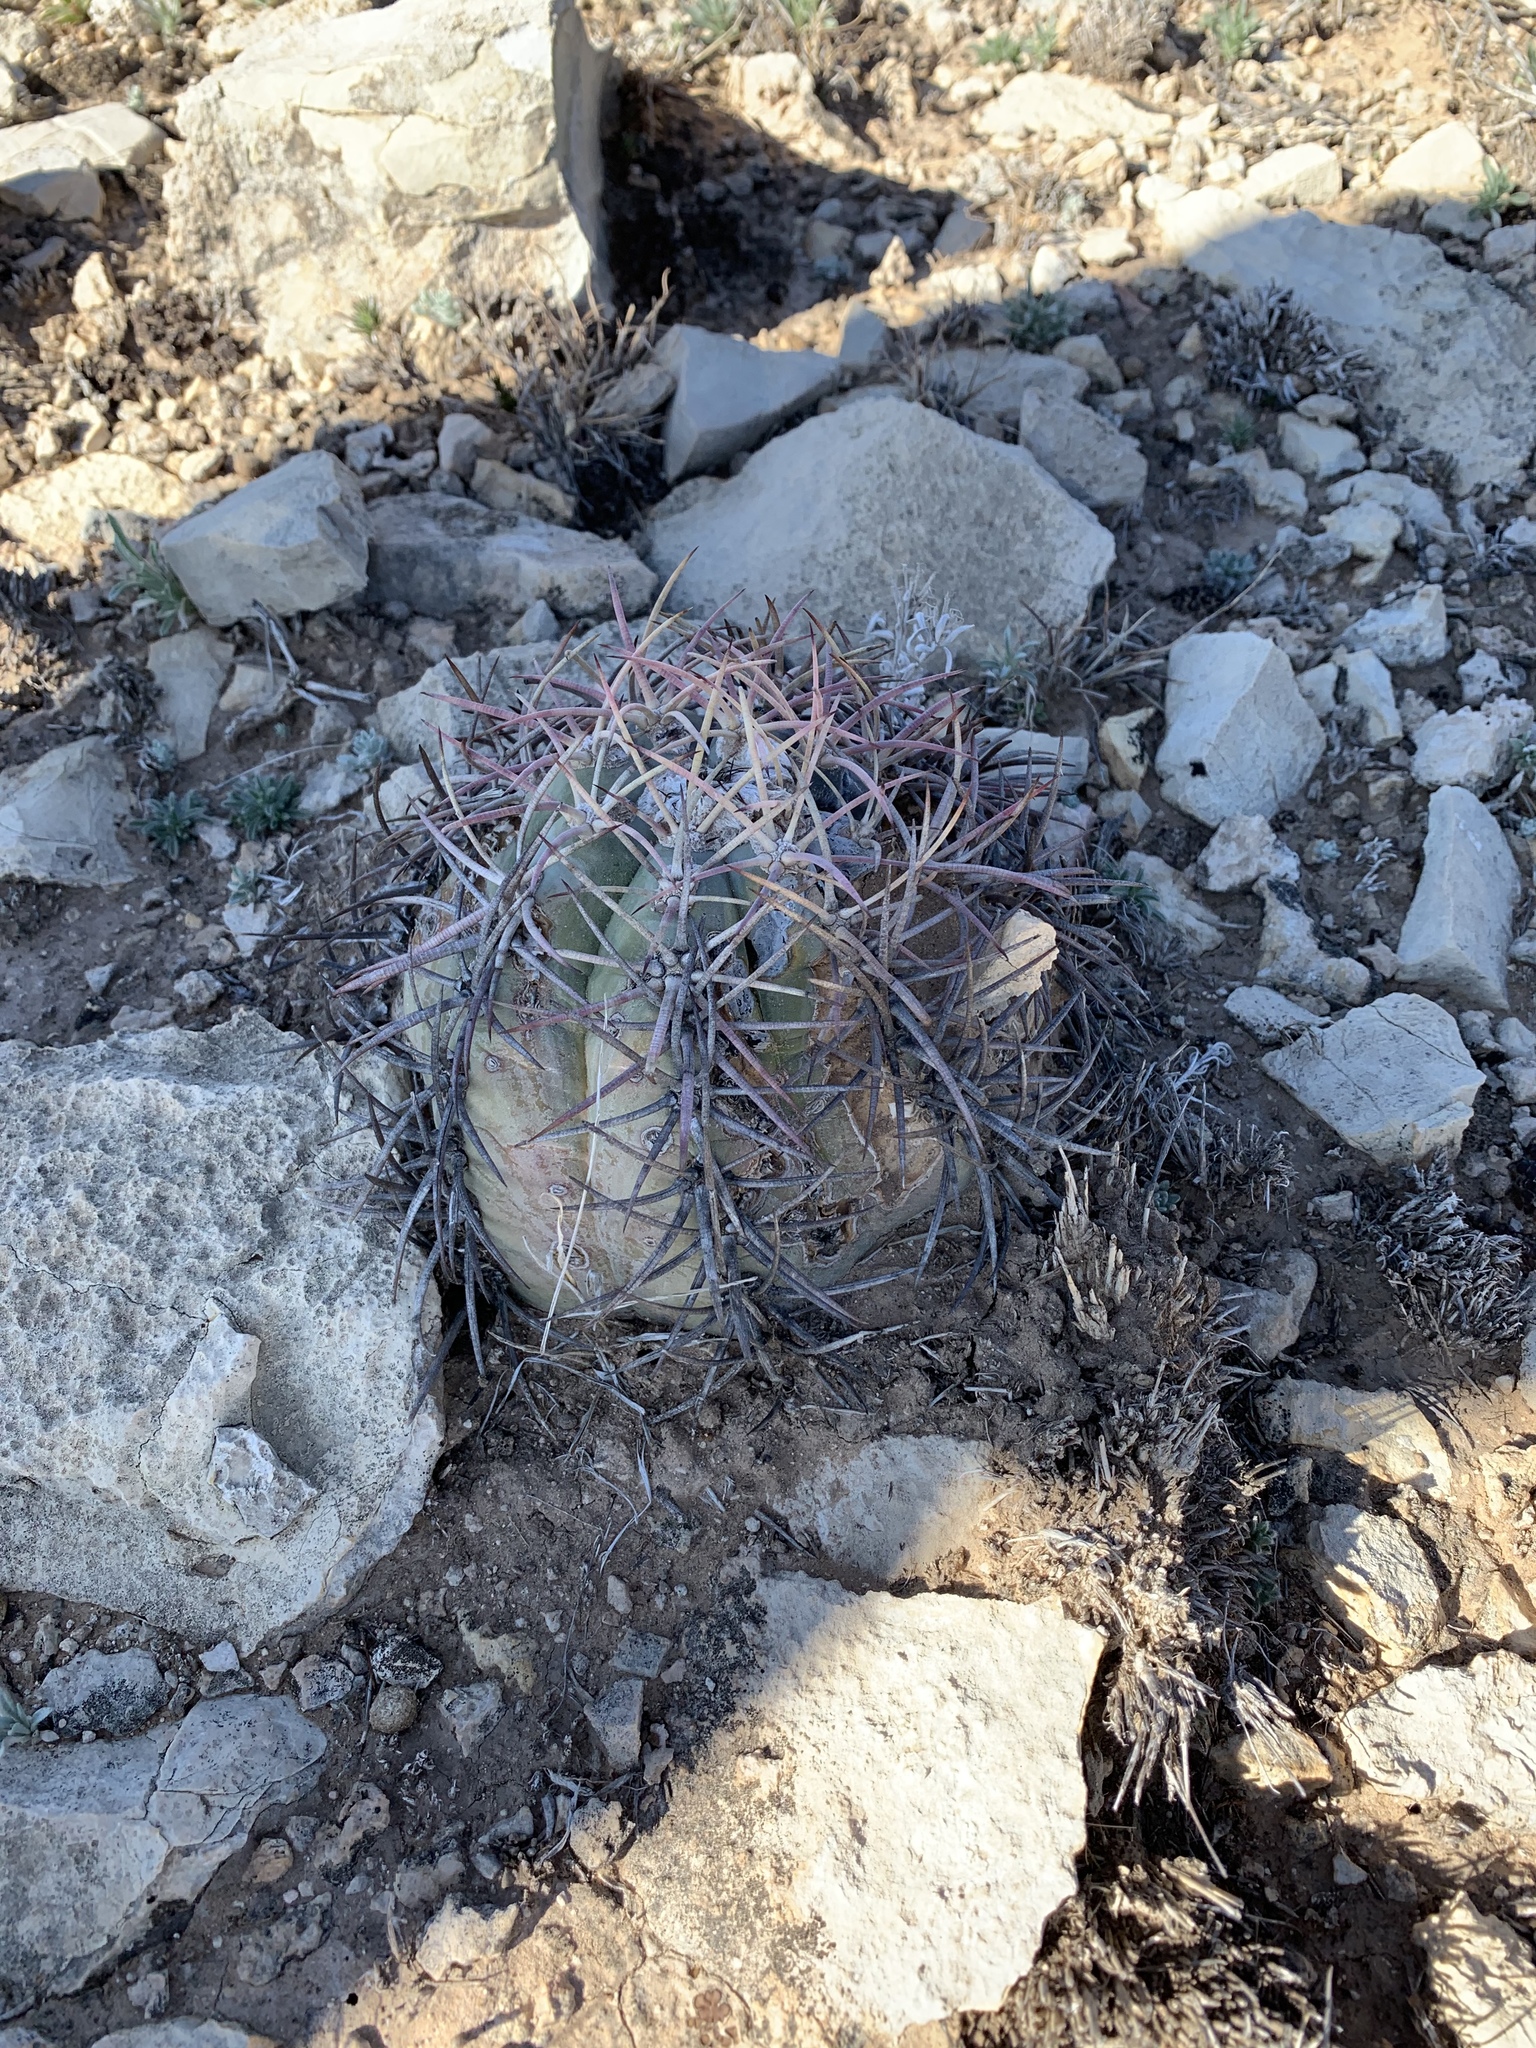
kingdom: Plantae
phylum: Tracheophyta
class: Magnoliopsida
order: Caryophyllales
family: Cactaceae
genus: Echinocactus
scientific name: Echinocactus horizonthalonius
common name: Devilshead
